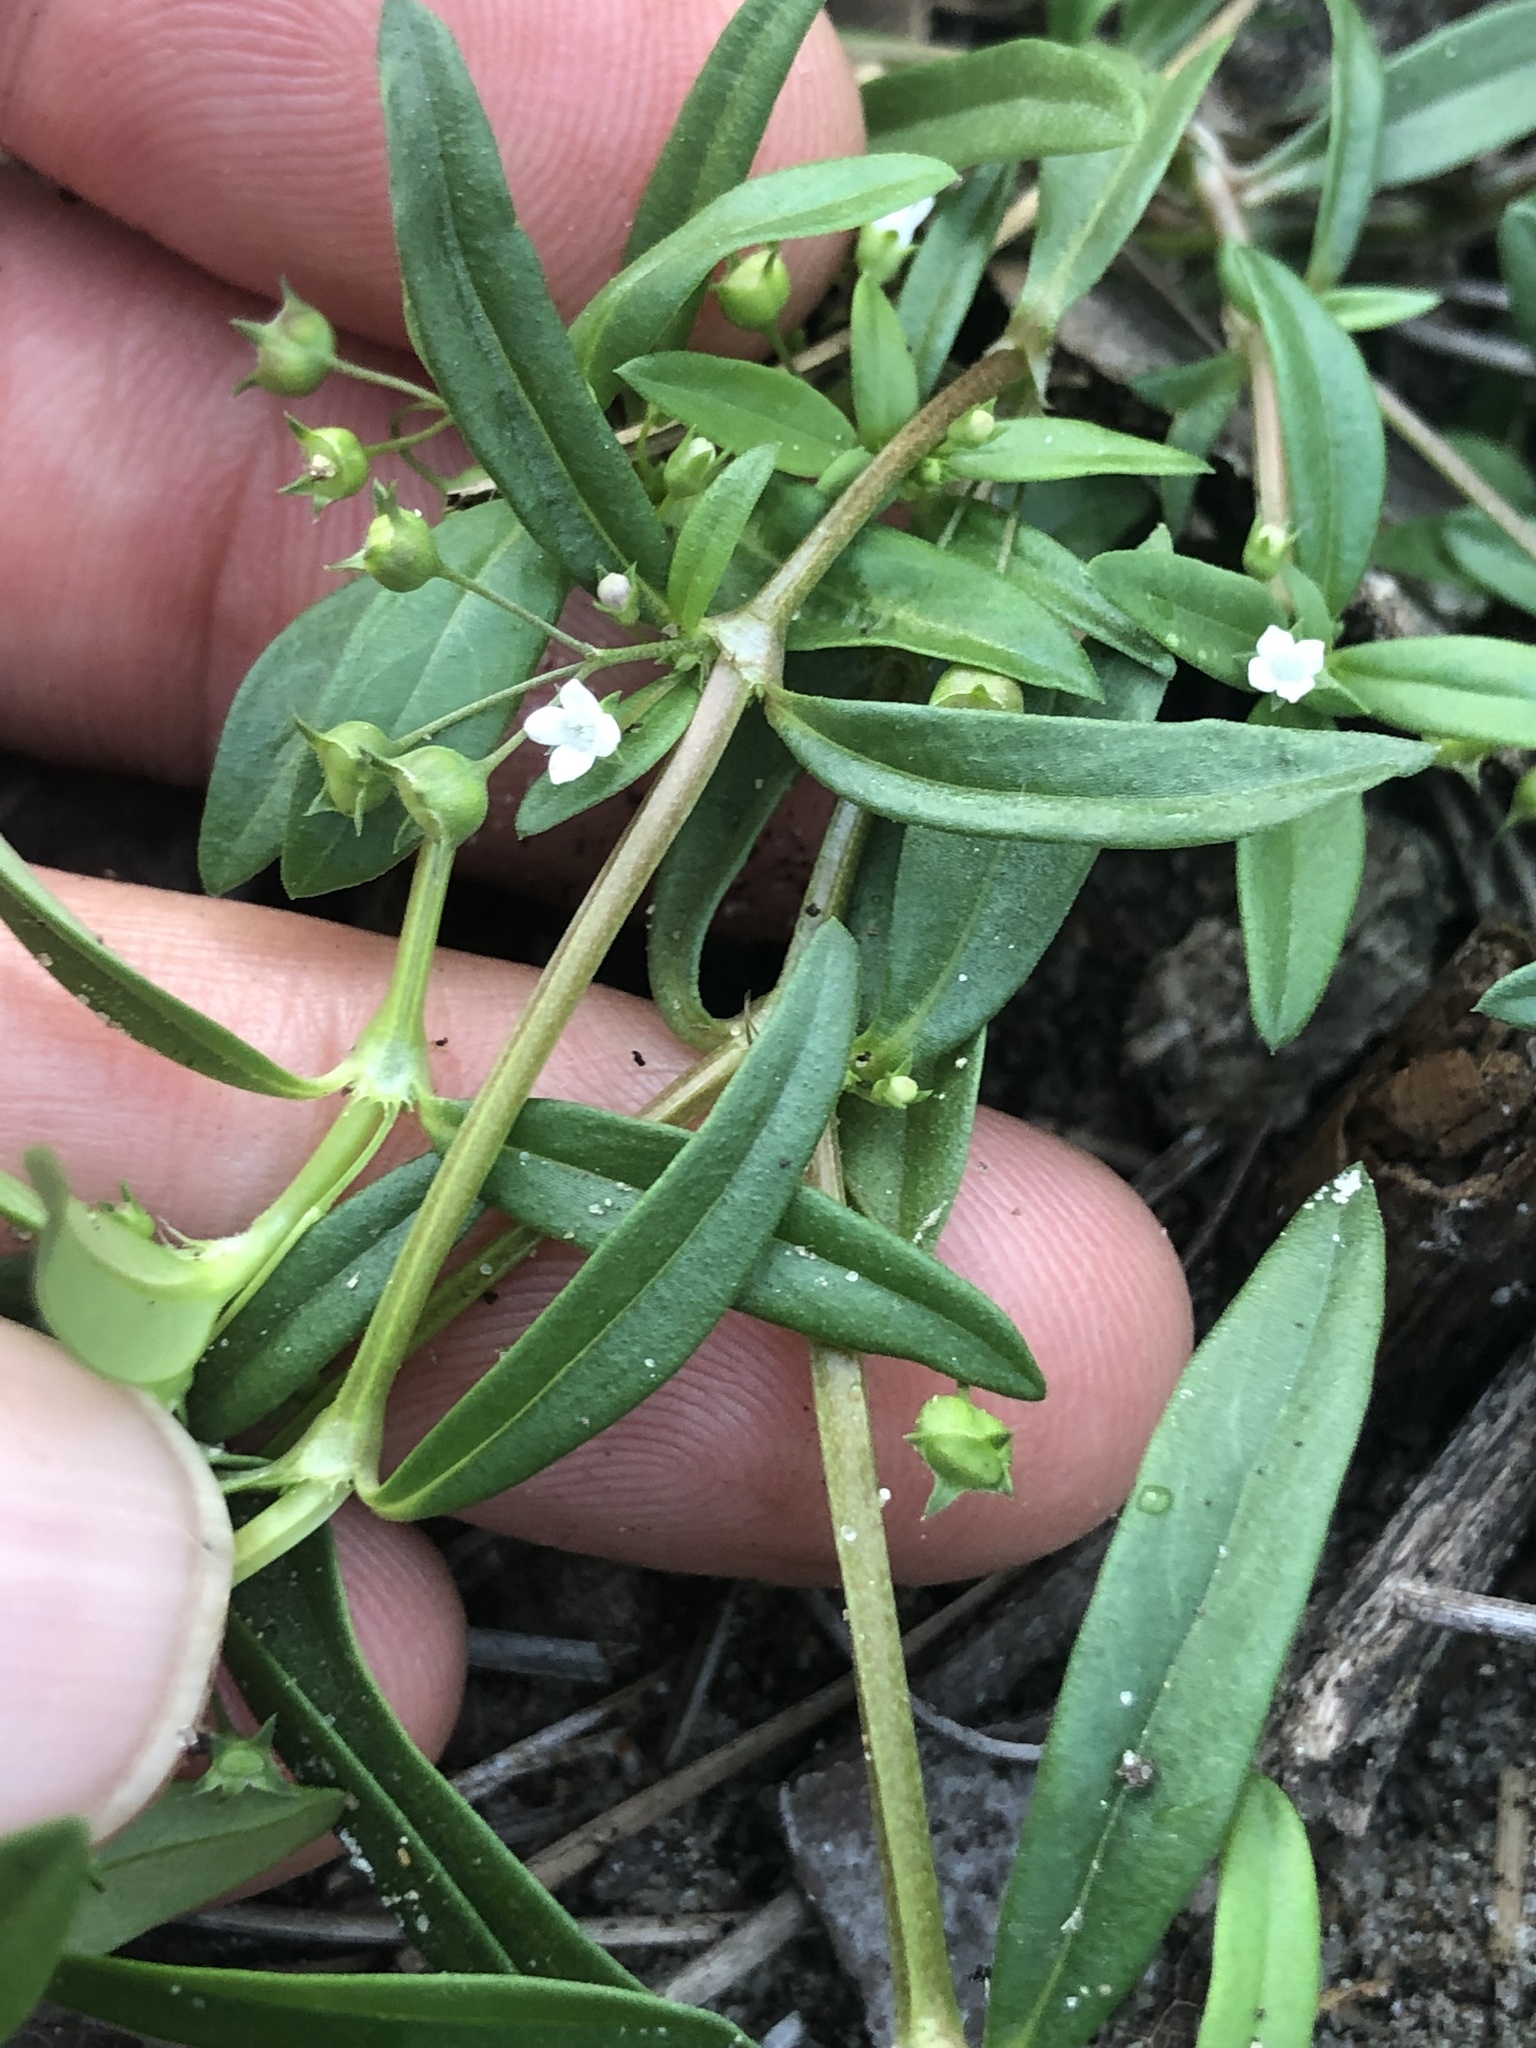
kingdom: Plantae
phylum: Tracheophyta
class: Magnoliopsida
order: Gentianales
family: Rubiaceae
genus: Oldenlandia
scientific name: Oldenlandia corymbosa
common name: Flat-top mille graines
